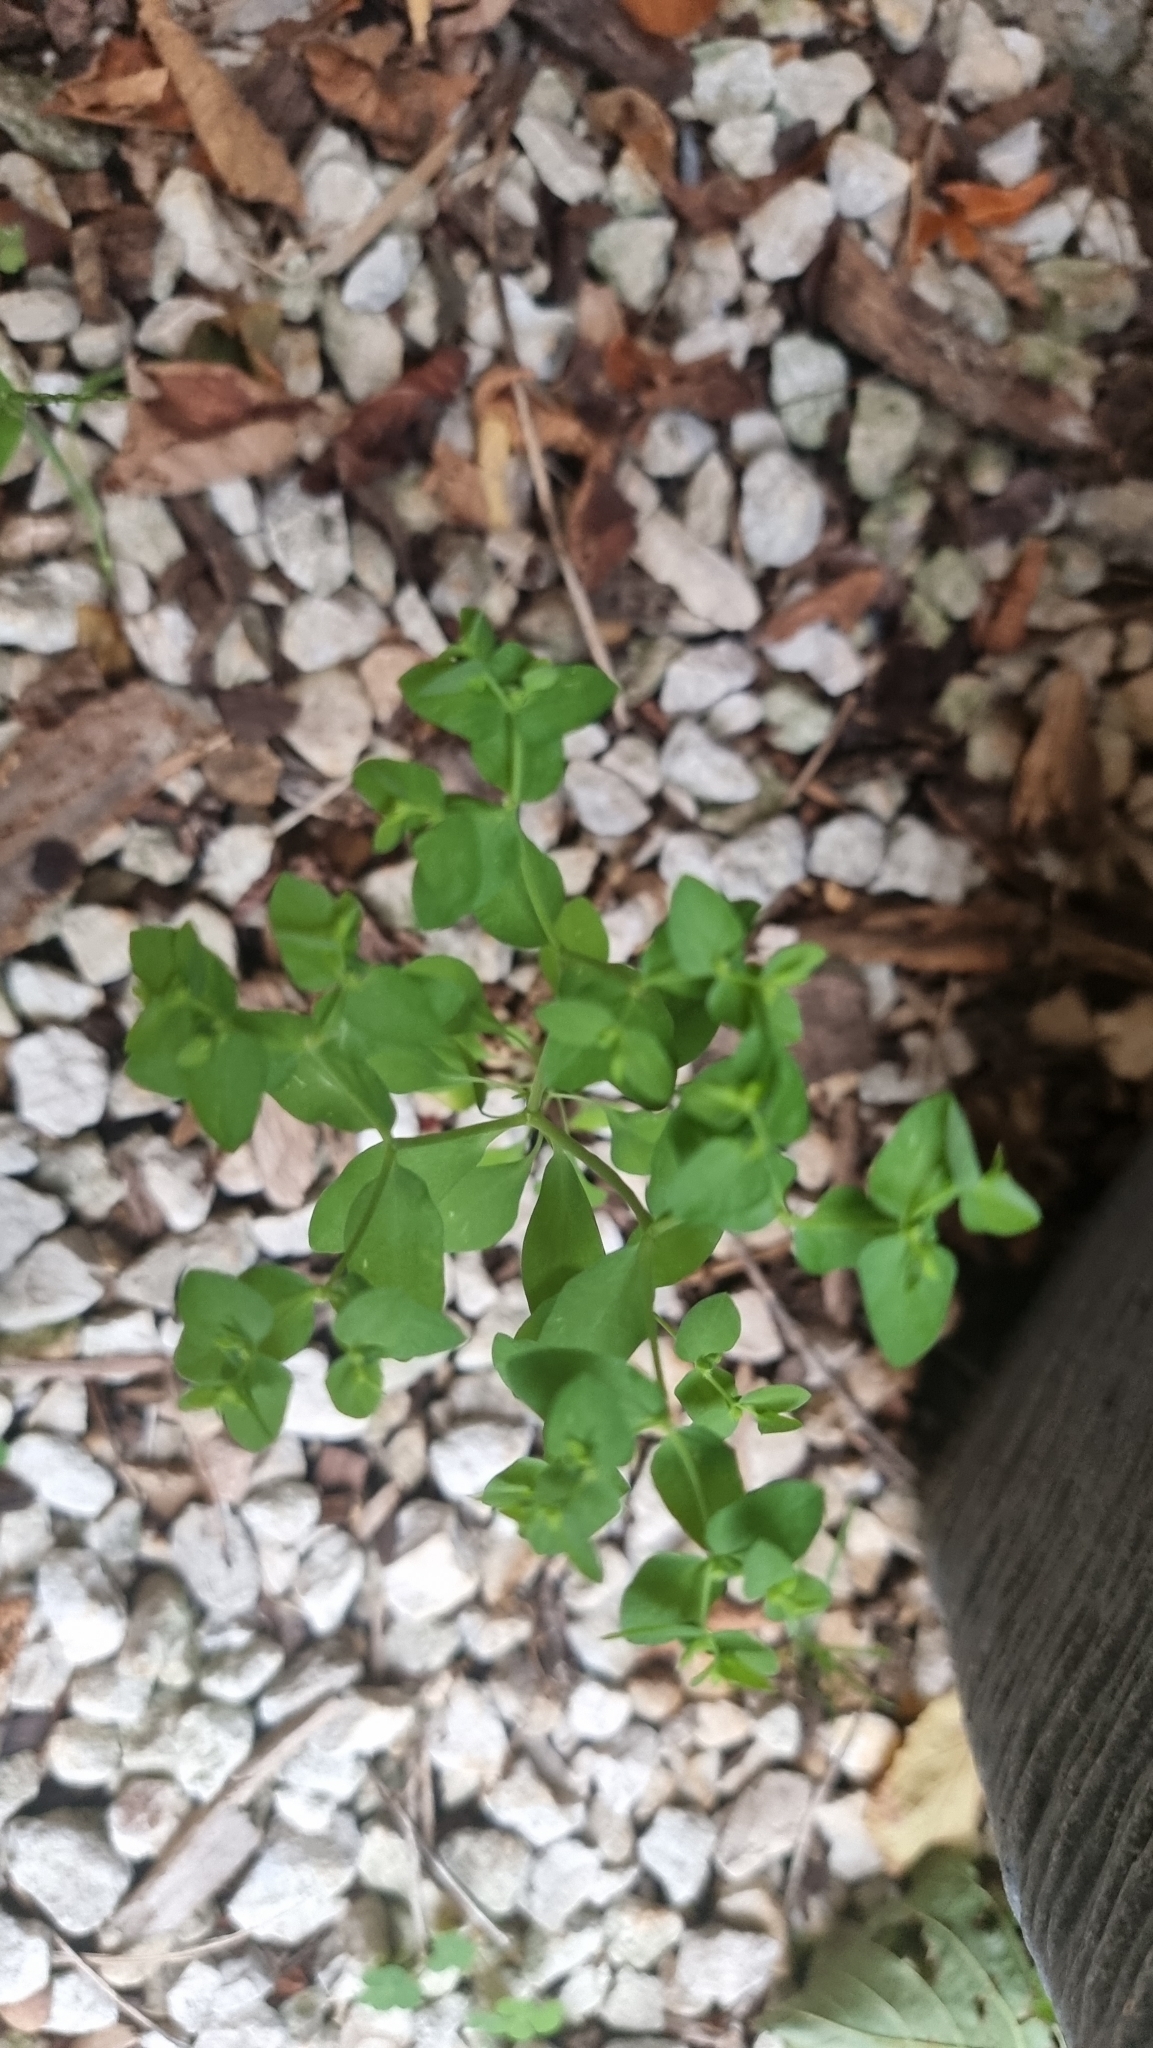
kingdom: Plantae
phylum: Tracheophyta
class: Magnoliopsida
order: Malpighiales
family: Euphorbiaceae
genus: Euphorbia
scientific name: Euphorbia peplus
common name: Petty spurge
